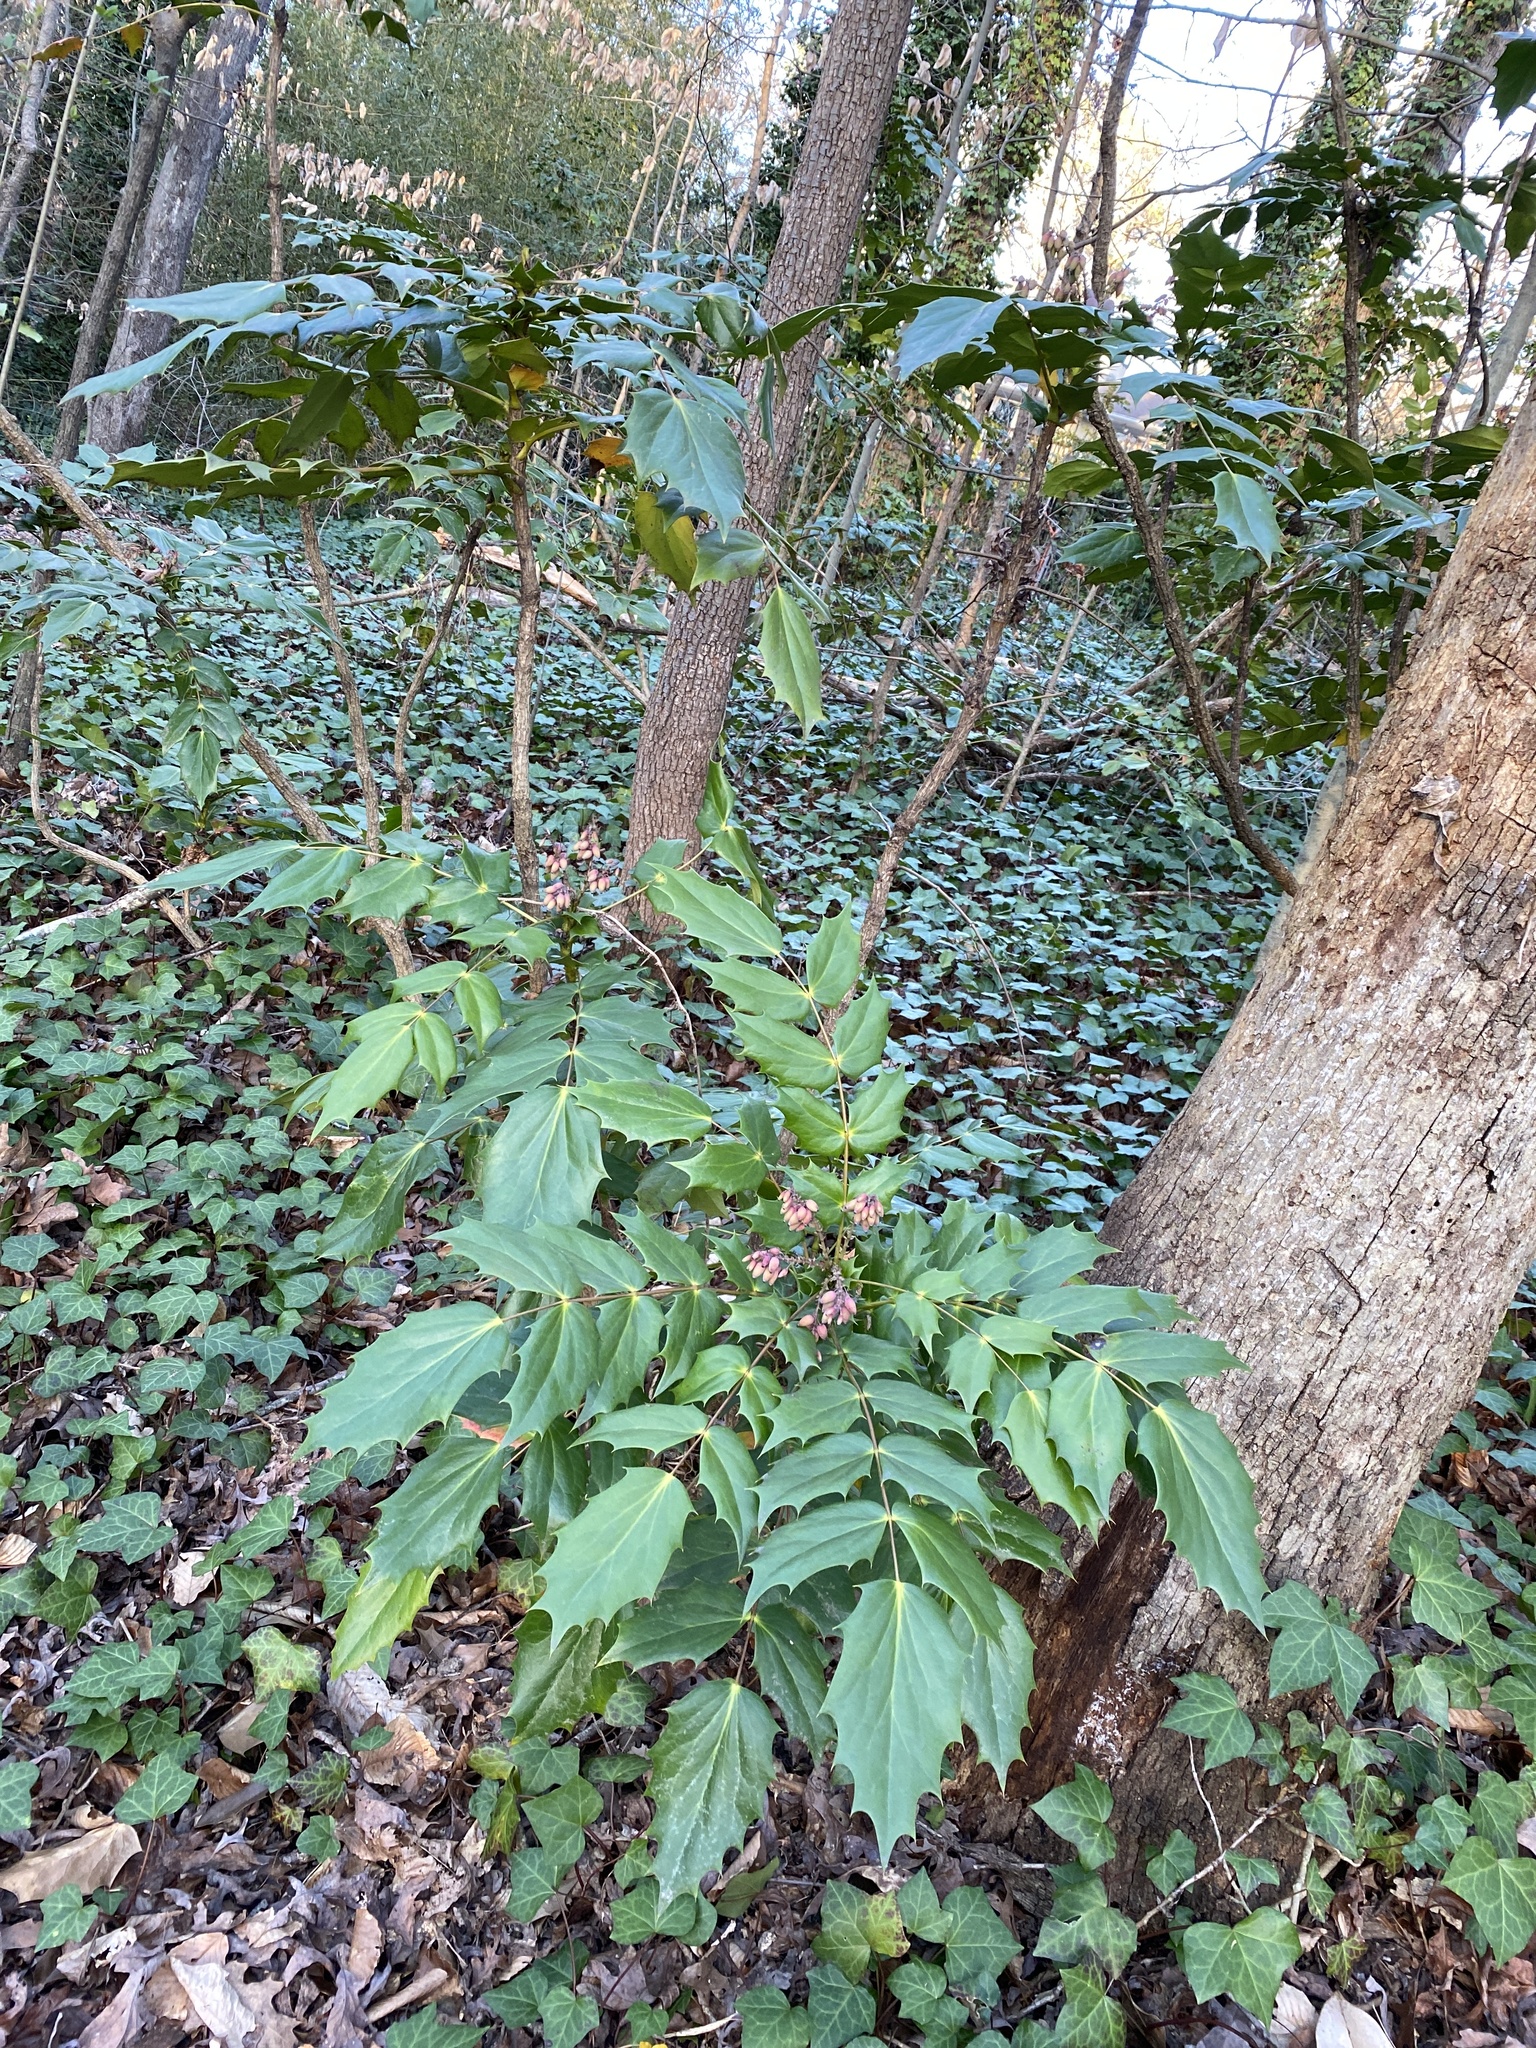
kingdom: Plantae
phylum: Tracheophyta
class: Magnoliopsida
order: Ranunculales
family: Berberidaceae
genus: Mahonia
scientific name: Mahonia bealei
